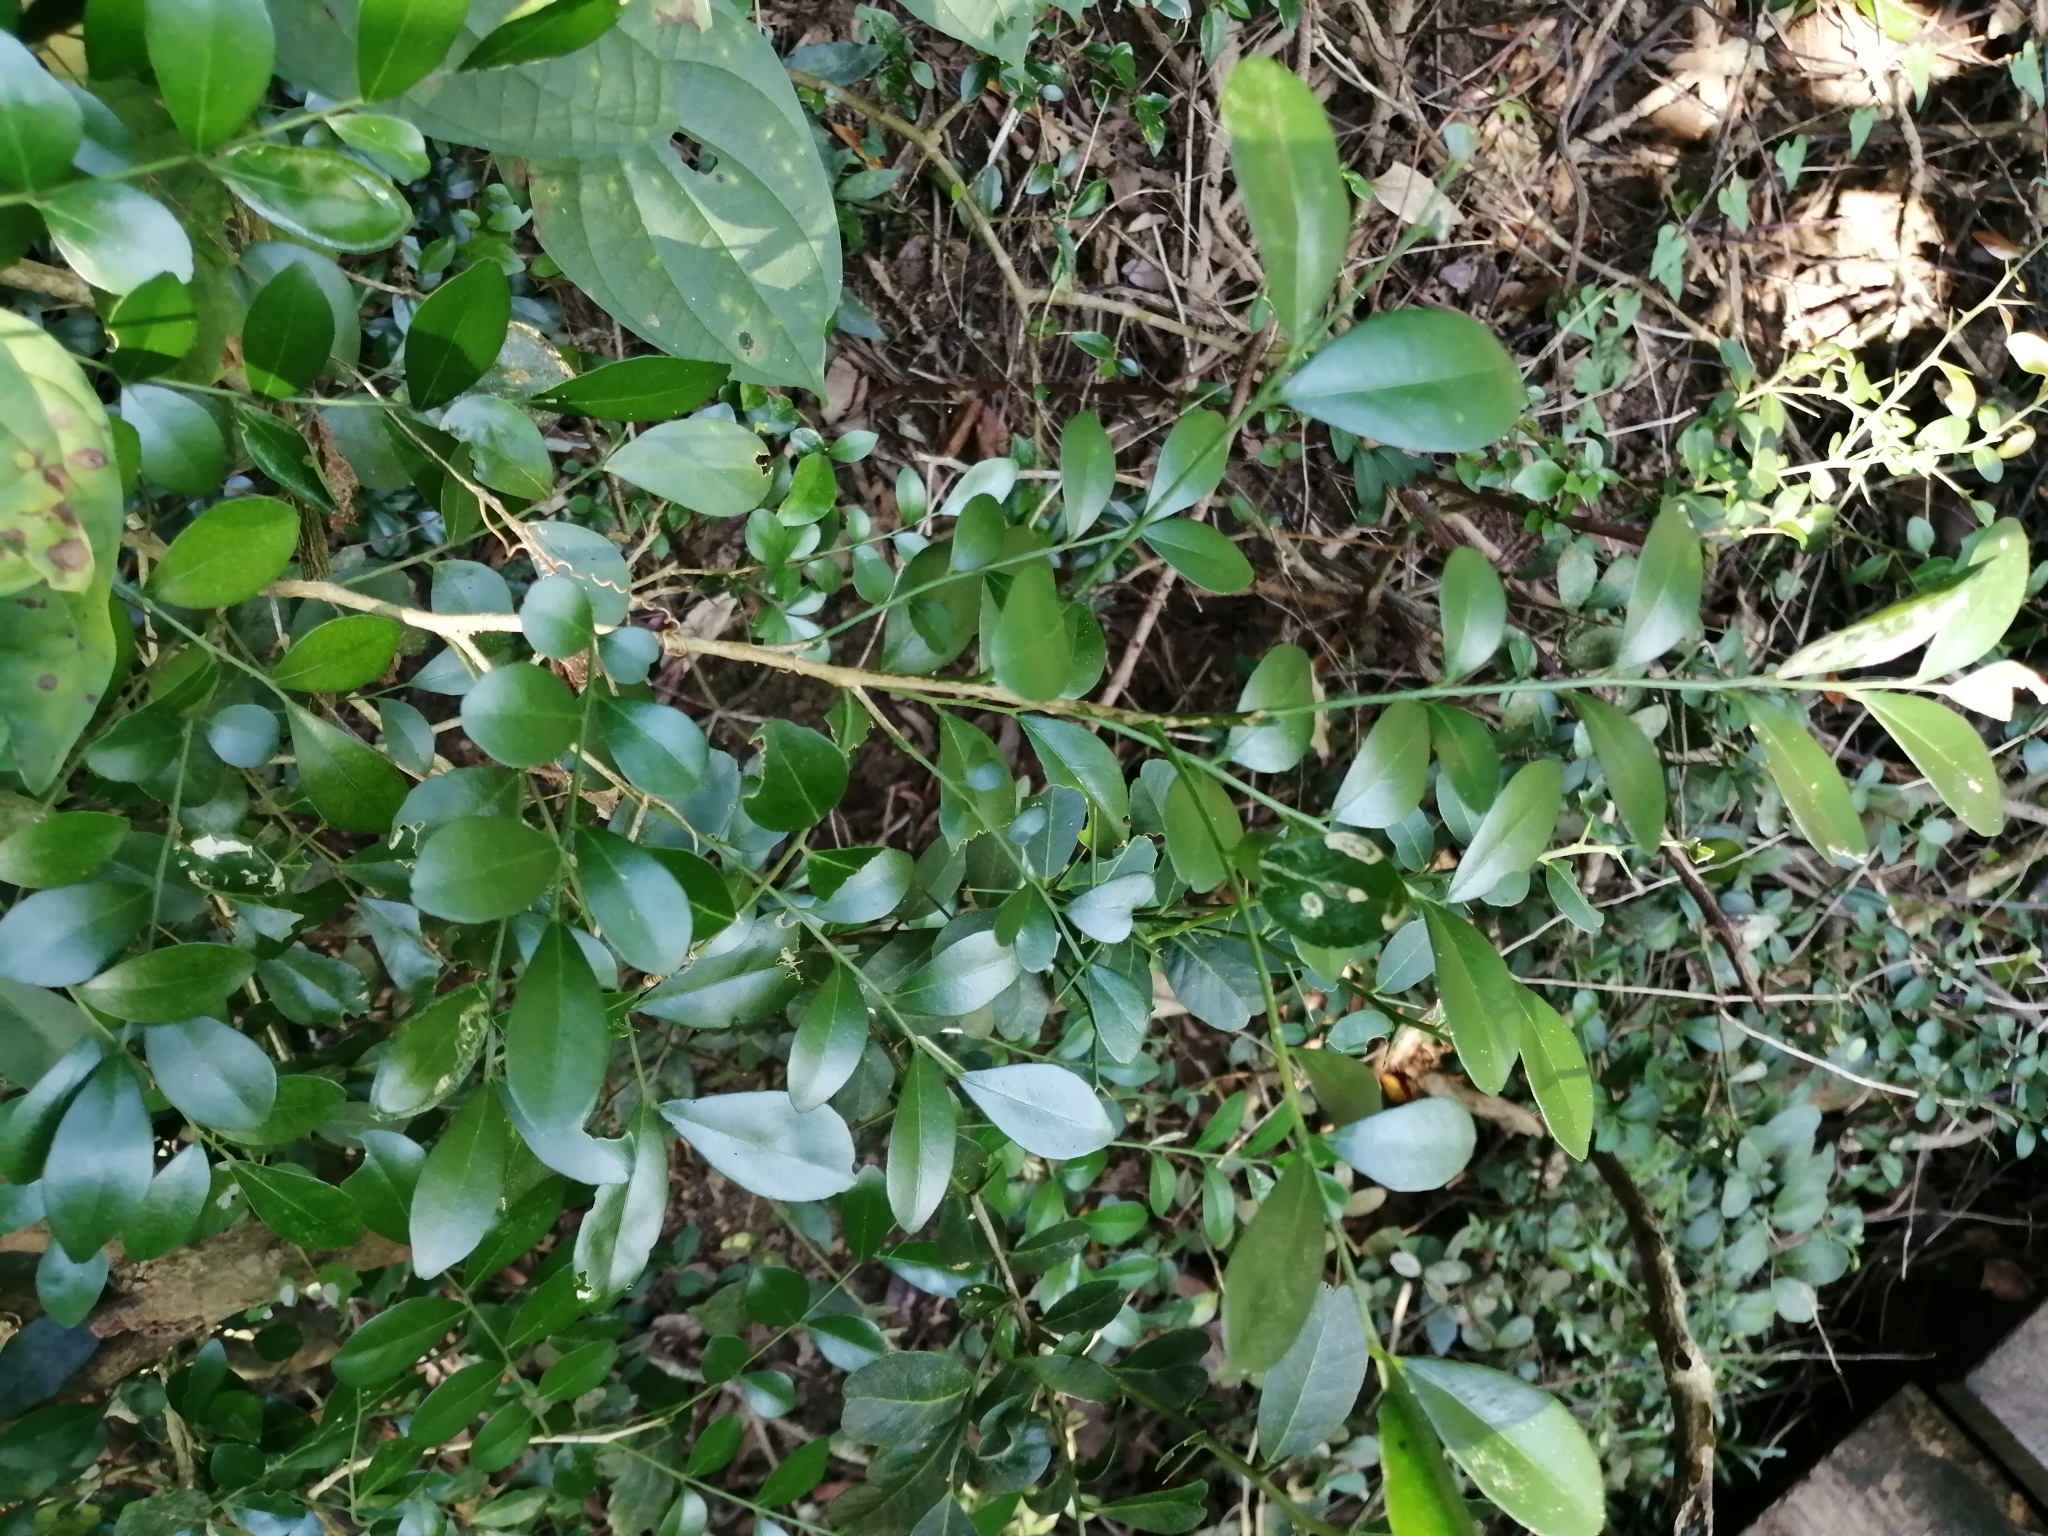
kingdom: Plantae
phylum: Tracheophyta
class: Magnoliopsida
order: Sapindales
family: Rutaceae
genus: Murraya
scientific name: Murraya paniculata
